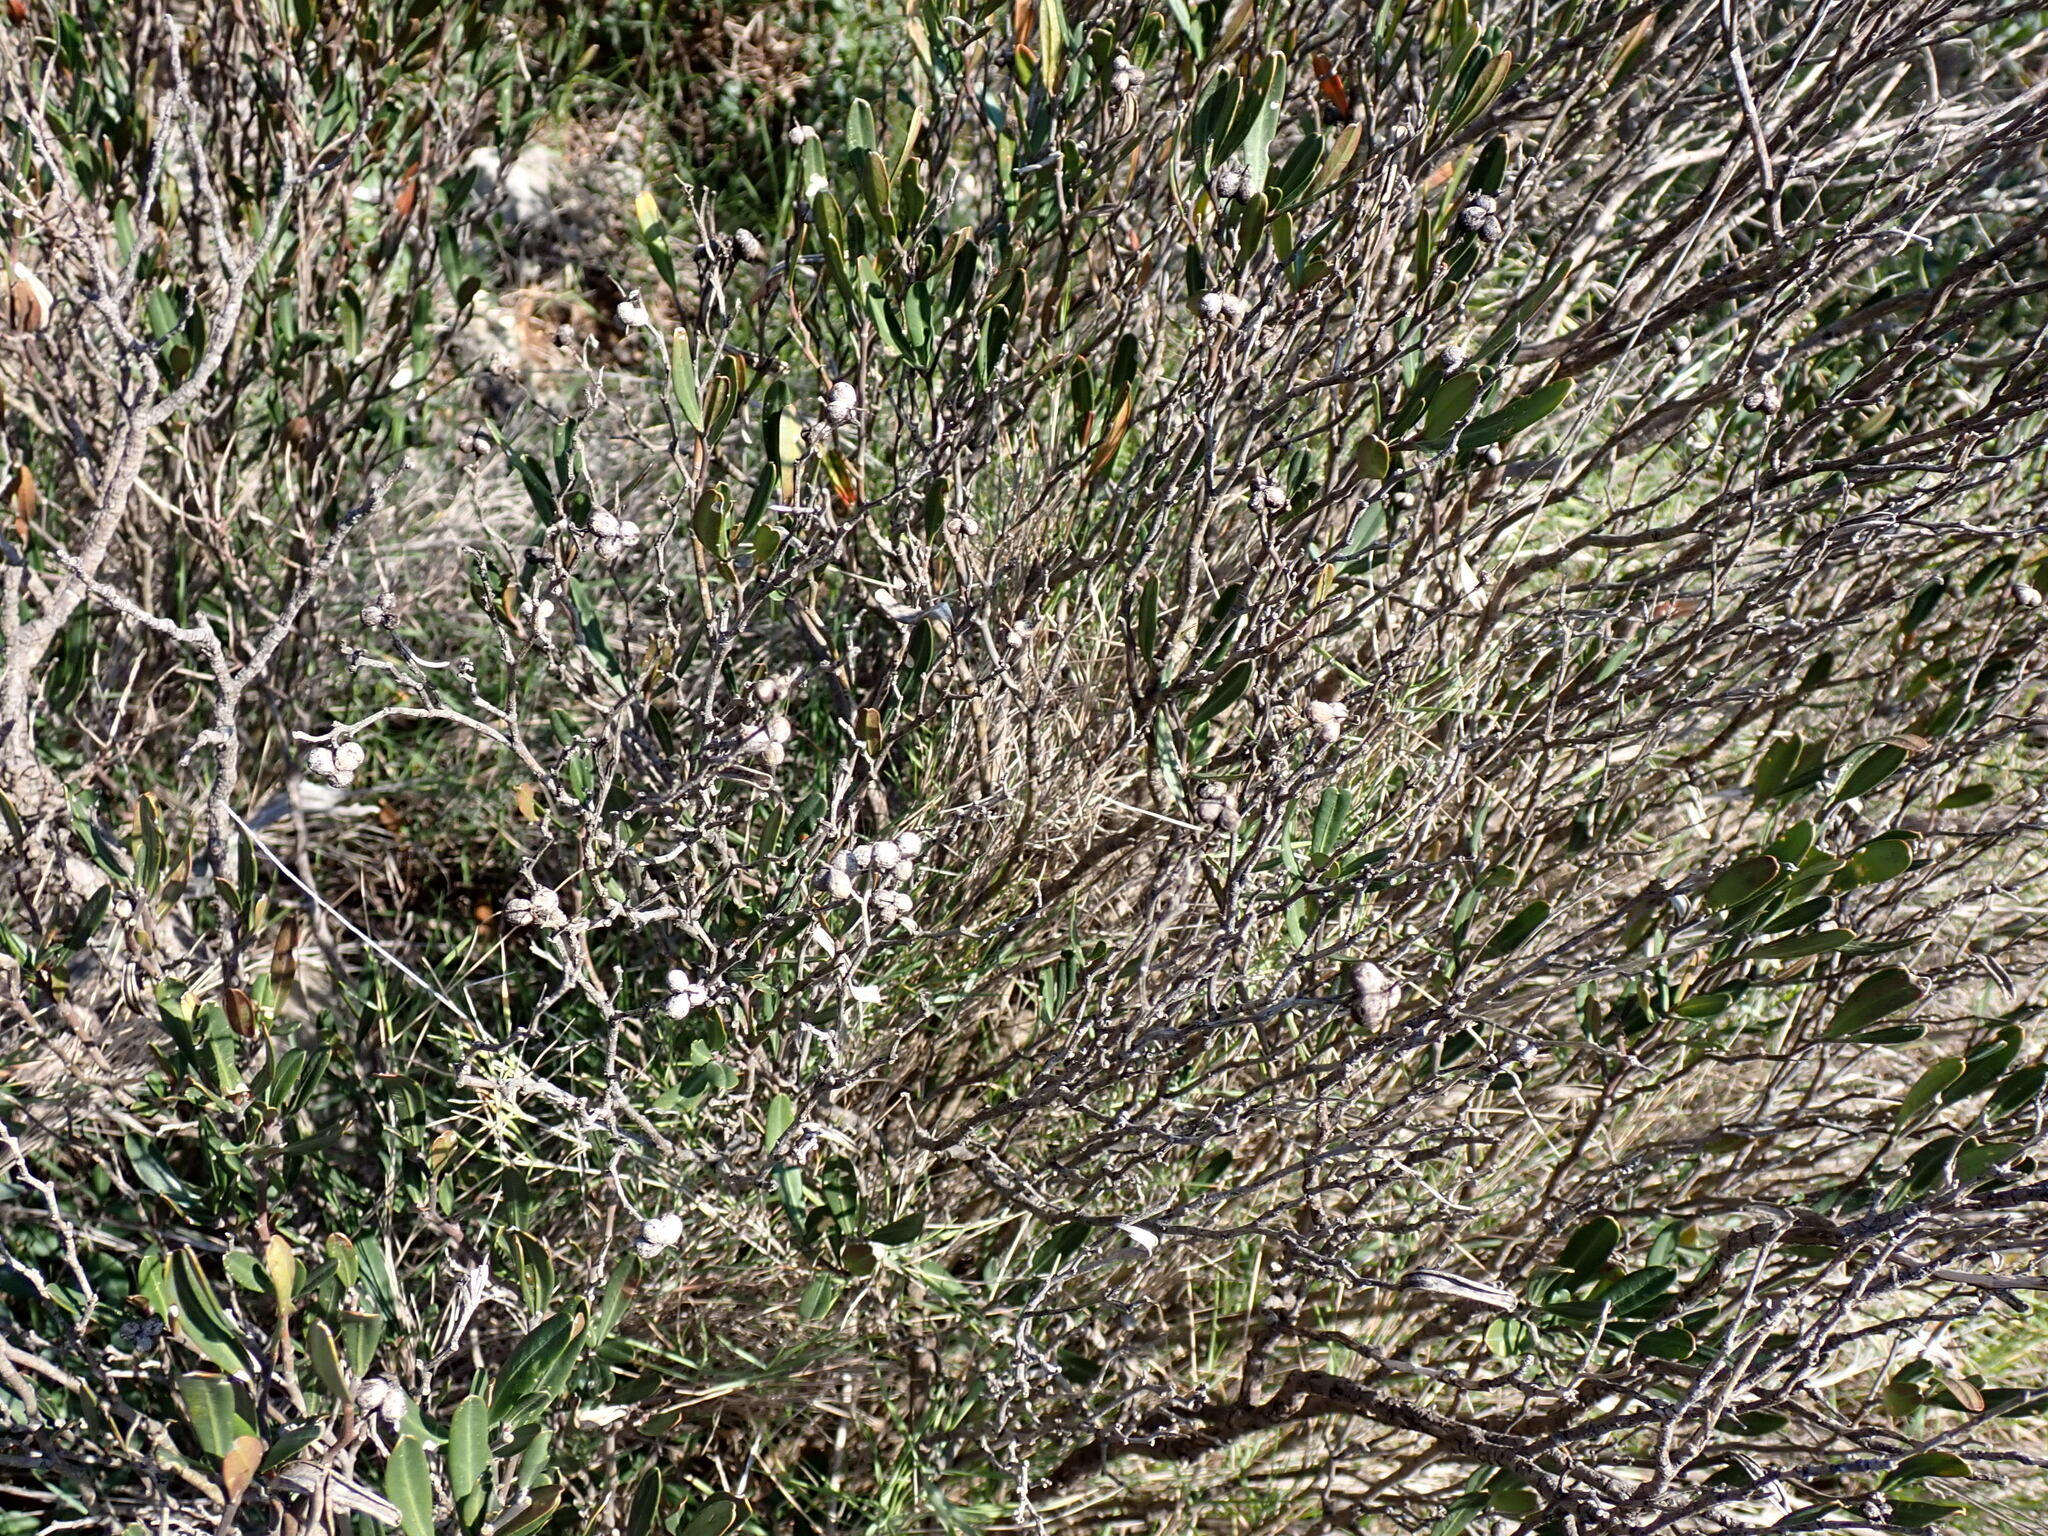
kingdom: Plantae
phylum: Tracheophyta
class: Magnoliopsida
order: Sapindales
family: Rutaceae
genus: Cneorum
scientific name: Cneorum tricoccon
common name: Spurge olive
